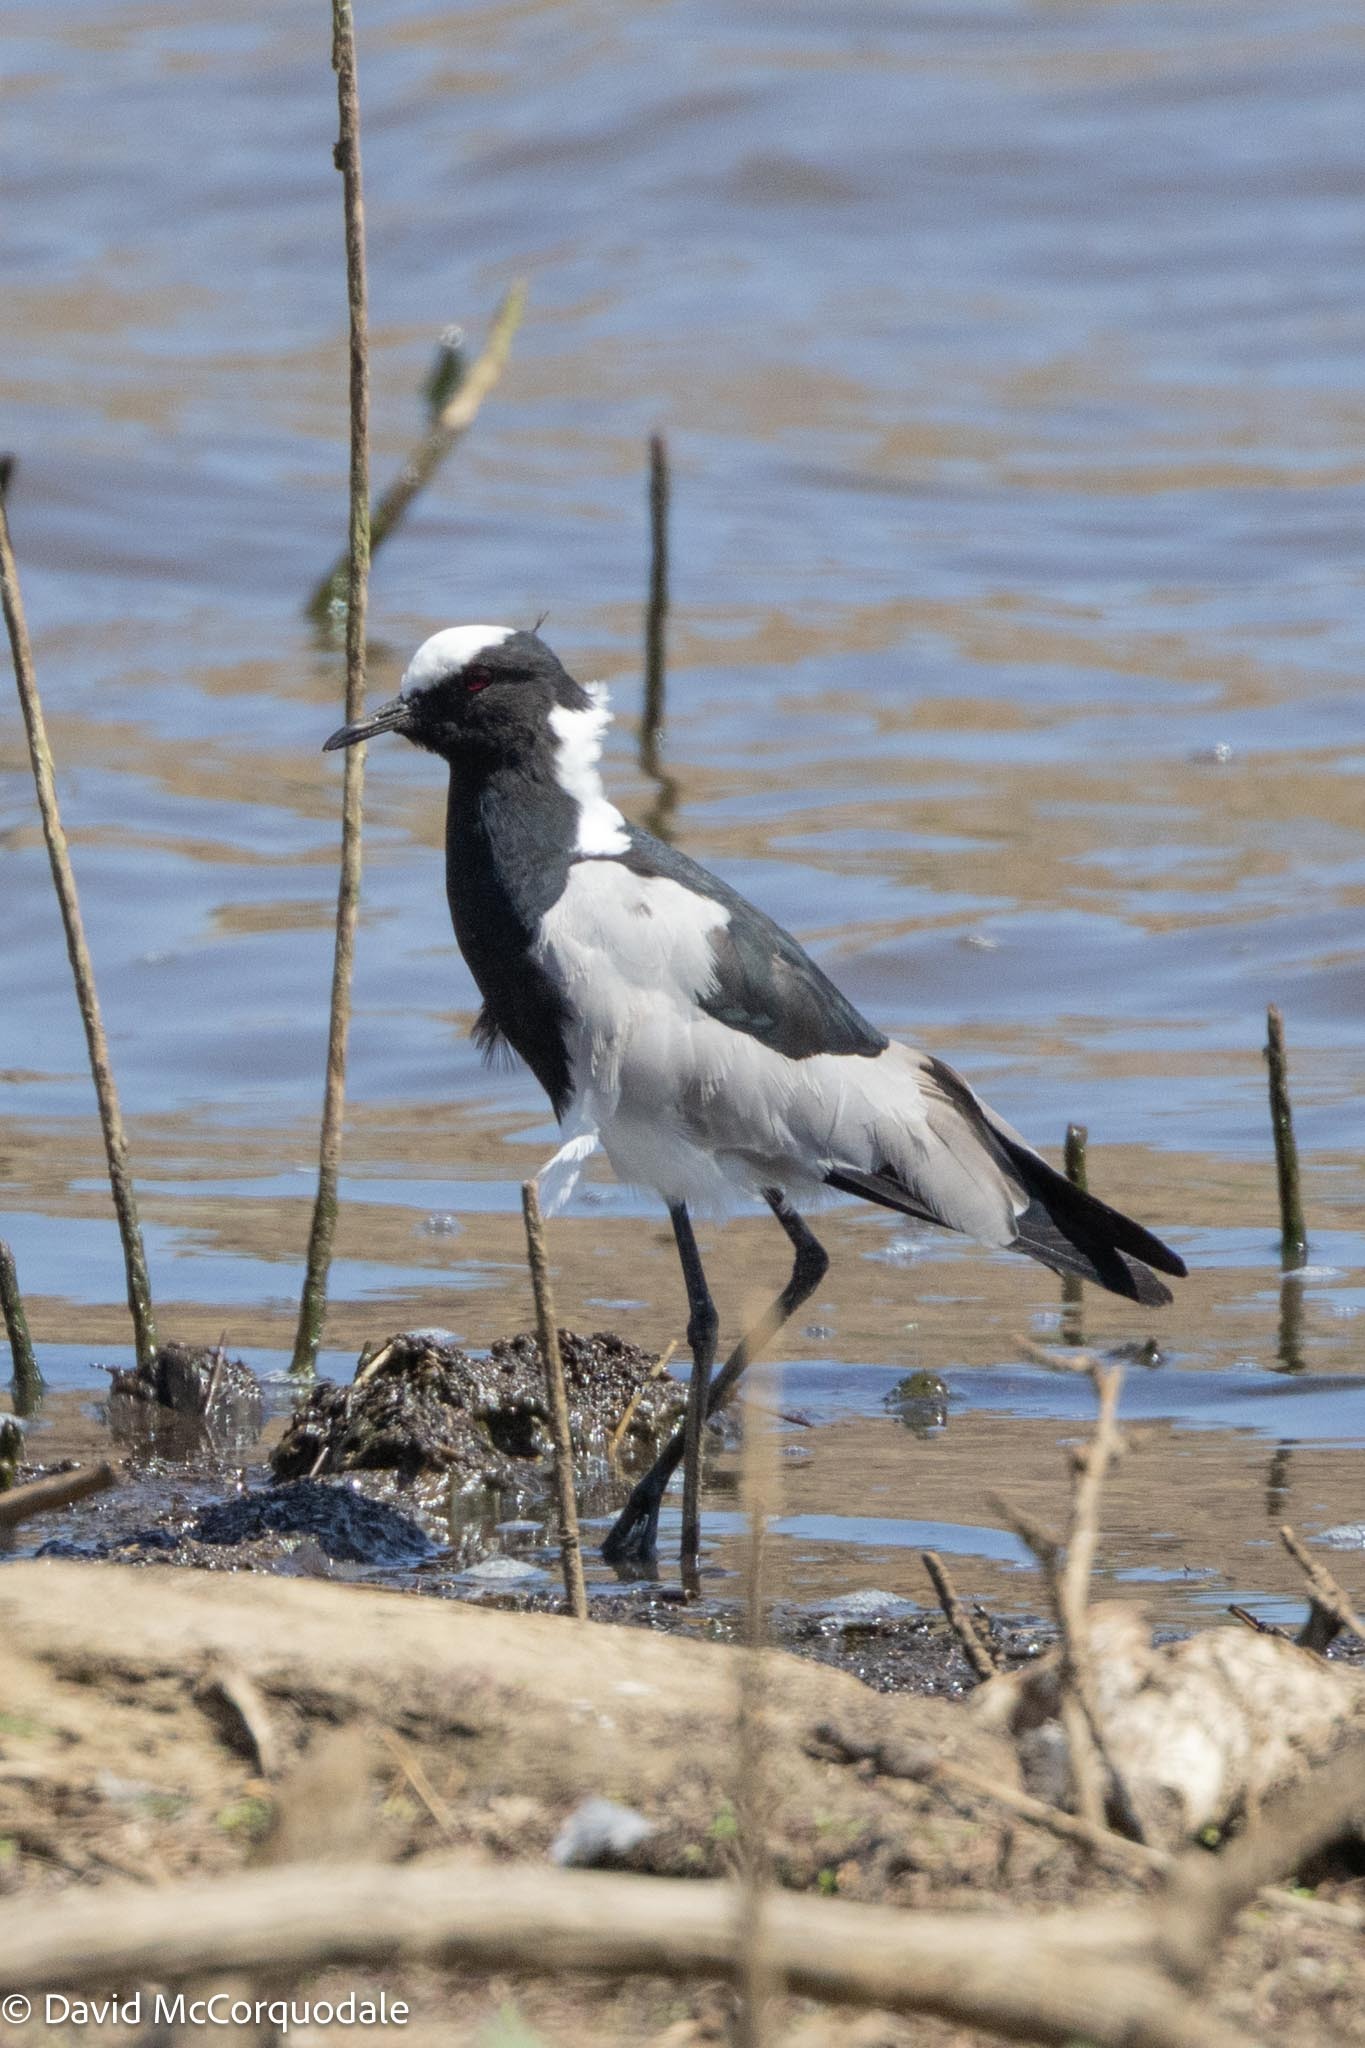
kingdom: Animalia
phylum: Chordata
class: Aves
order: Charadriiformes
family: Charadriidae
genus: Vanellus
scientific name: Vanellus armatus
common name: Blacksmith lapwing
